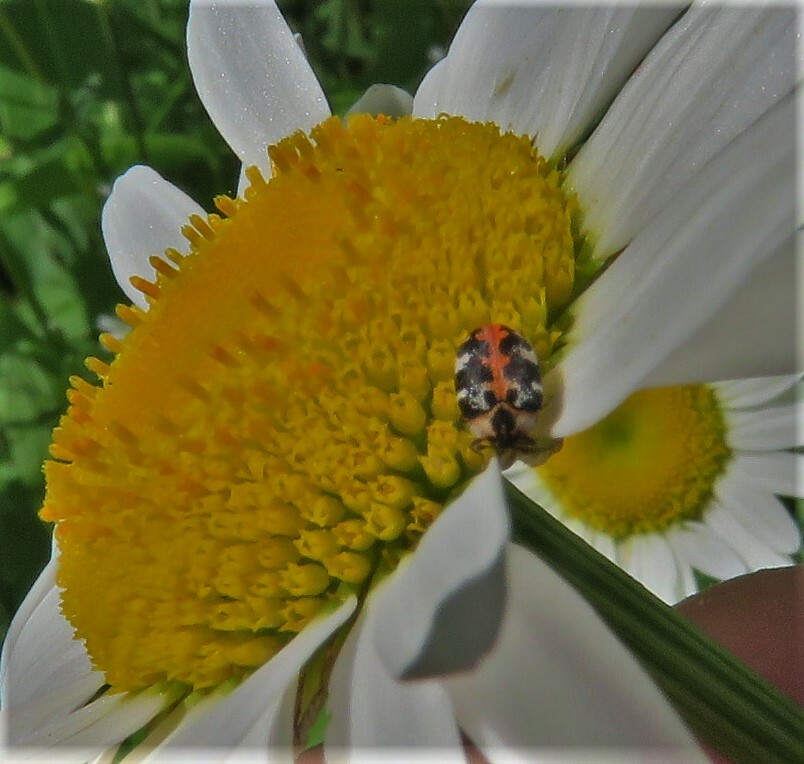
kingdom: Animalia
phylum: Arthropoda
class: Insecta
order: Coleoptera
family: Dermestidae
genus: Anthrenus
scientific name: Anthrenus scrophulariae
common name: Buffalo carpet beetle
